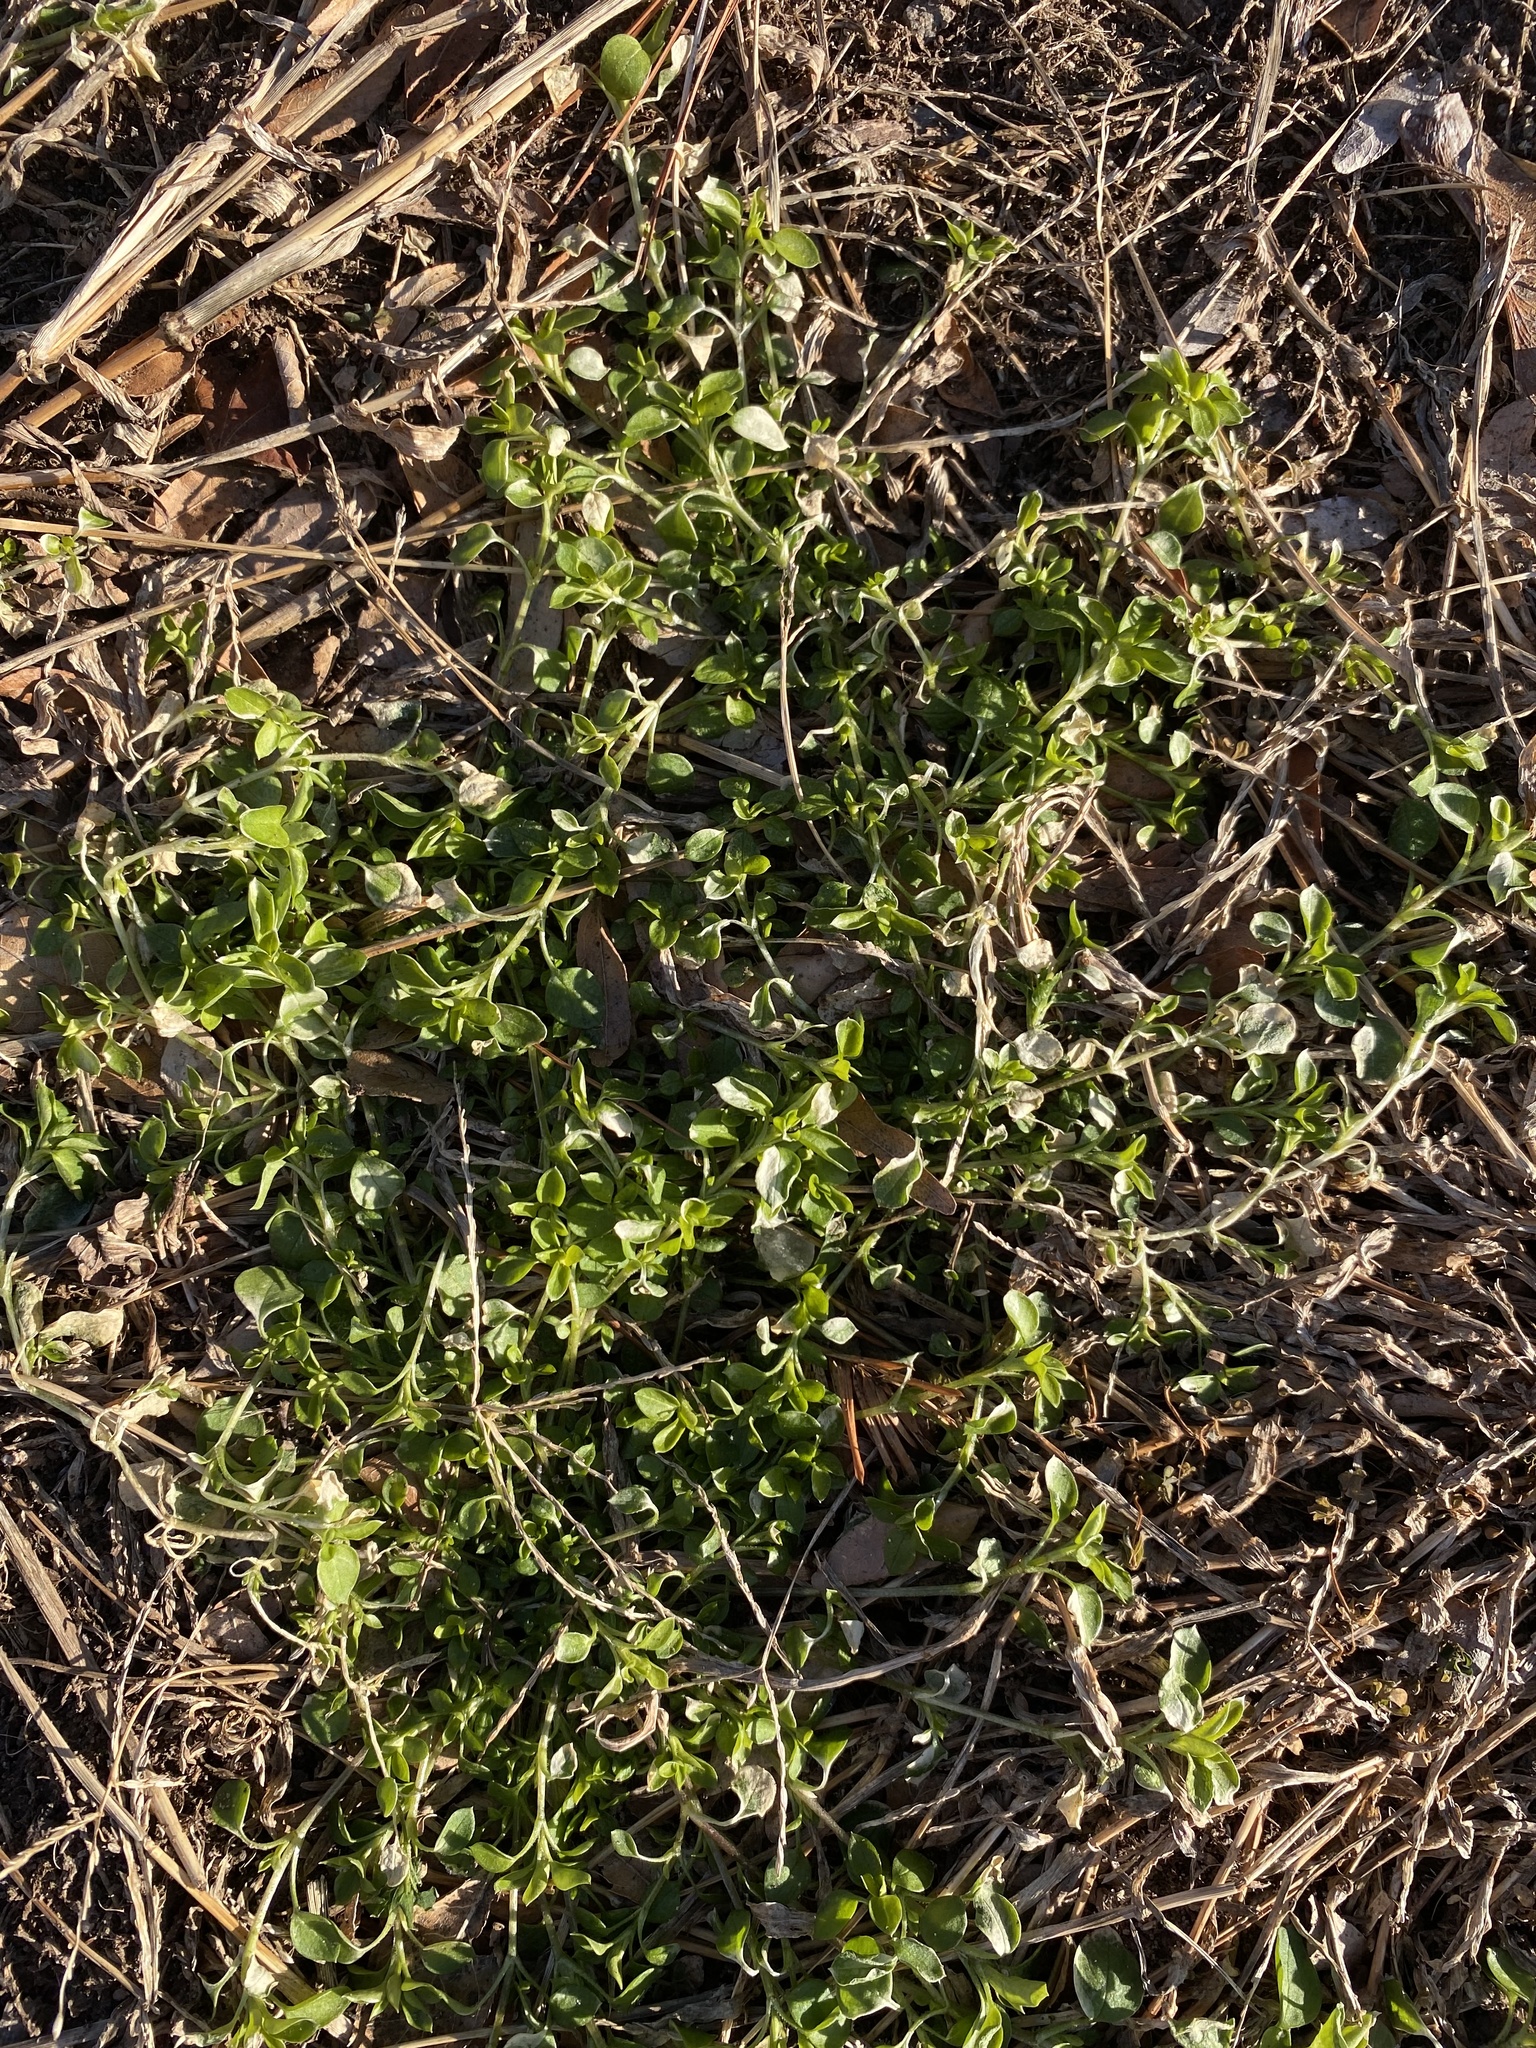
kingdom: Plantae
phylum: Tracheophyta
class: Magnoliopsida
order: Caryophyllales
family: Caryophyllaceae
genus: Stellaria
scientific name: Stellaria media
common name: Common chickweed
